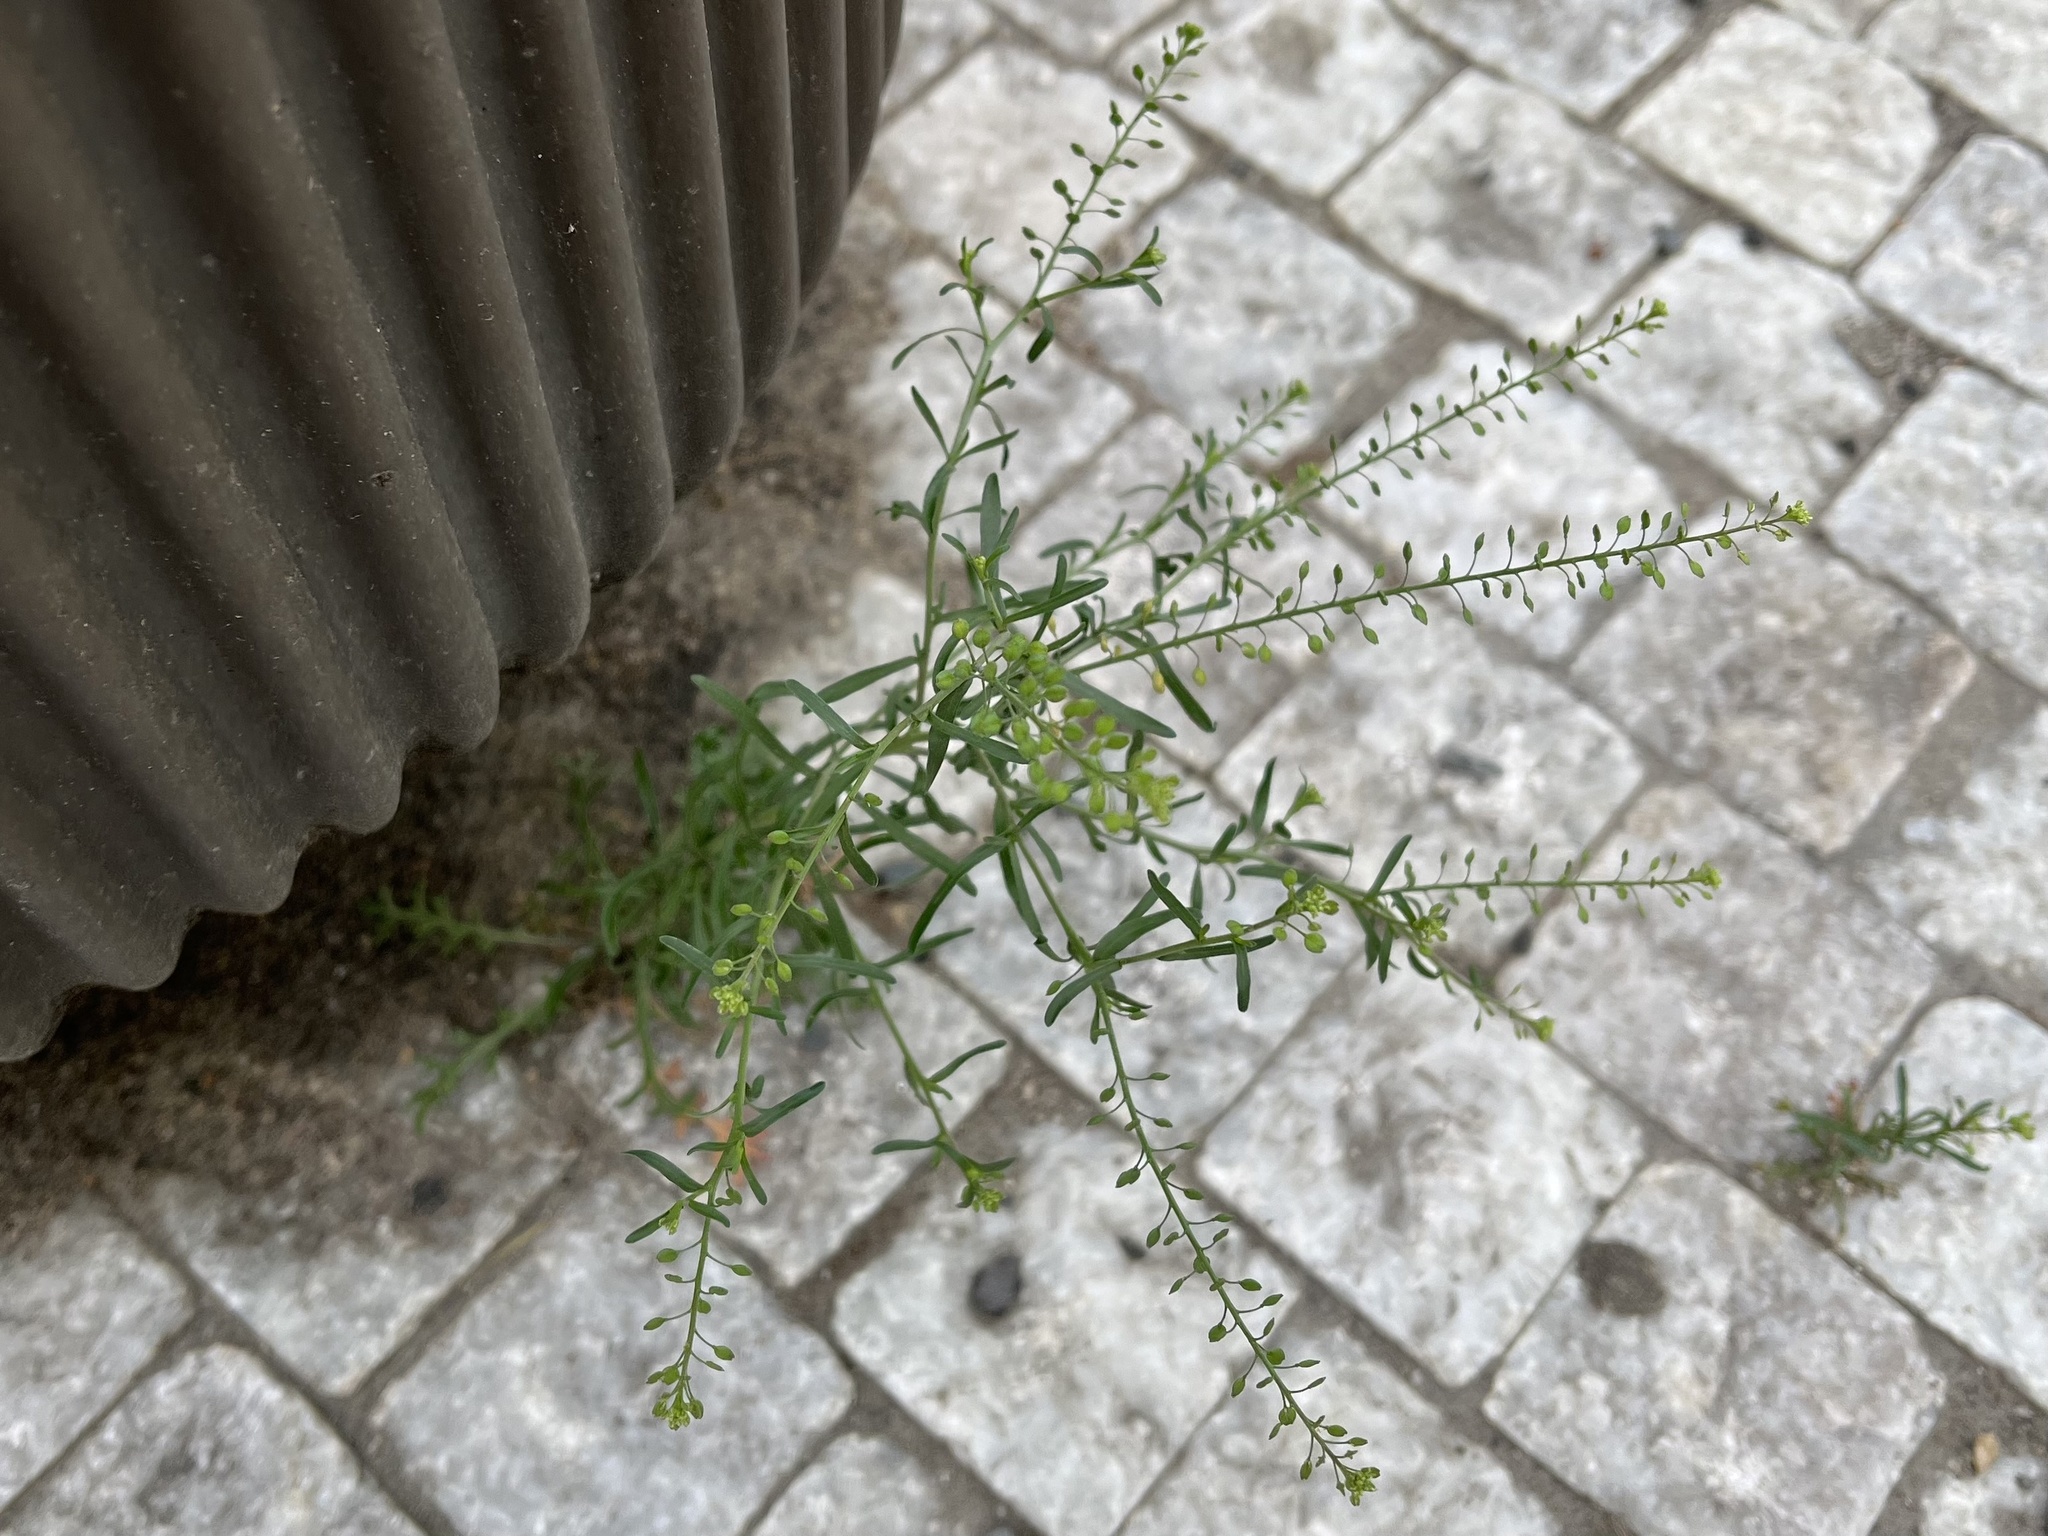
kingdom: Plantae
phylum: Tracheophyta
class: Magnoliopsida
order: Brassicales
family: Brassicaceae
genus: Lepidium
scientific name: Lepidium ruderale
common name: Narrow-leaved pepperwort
